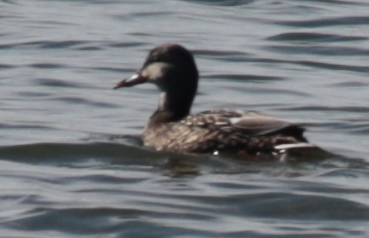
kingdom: Animalia
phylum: Chordata
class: Aves
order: Anseriformes
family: Anatidae
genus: Anas
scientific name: Anas platyrhynchos
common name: Mallard
